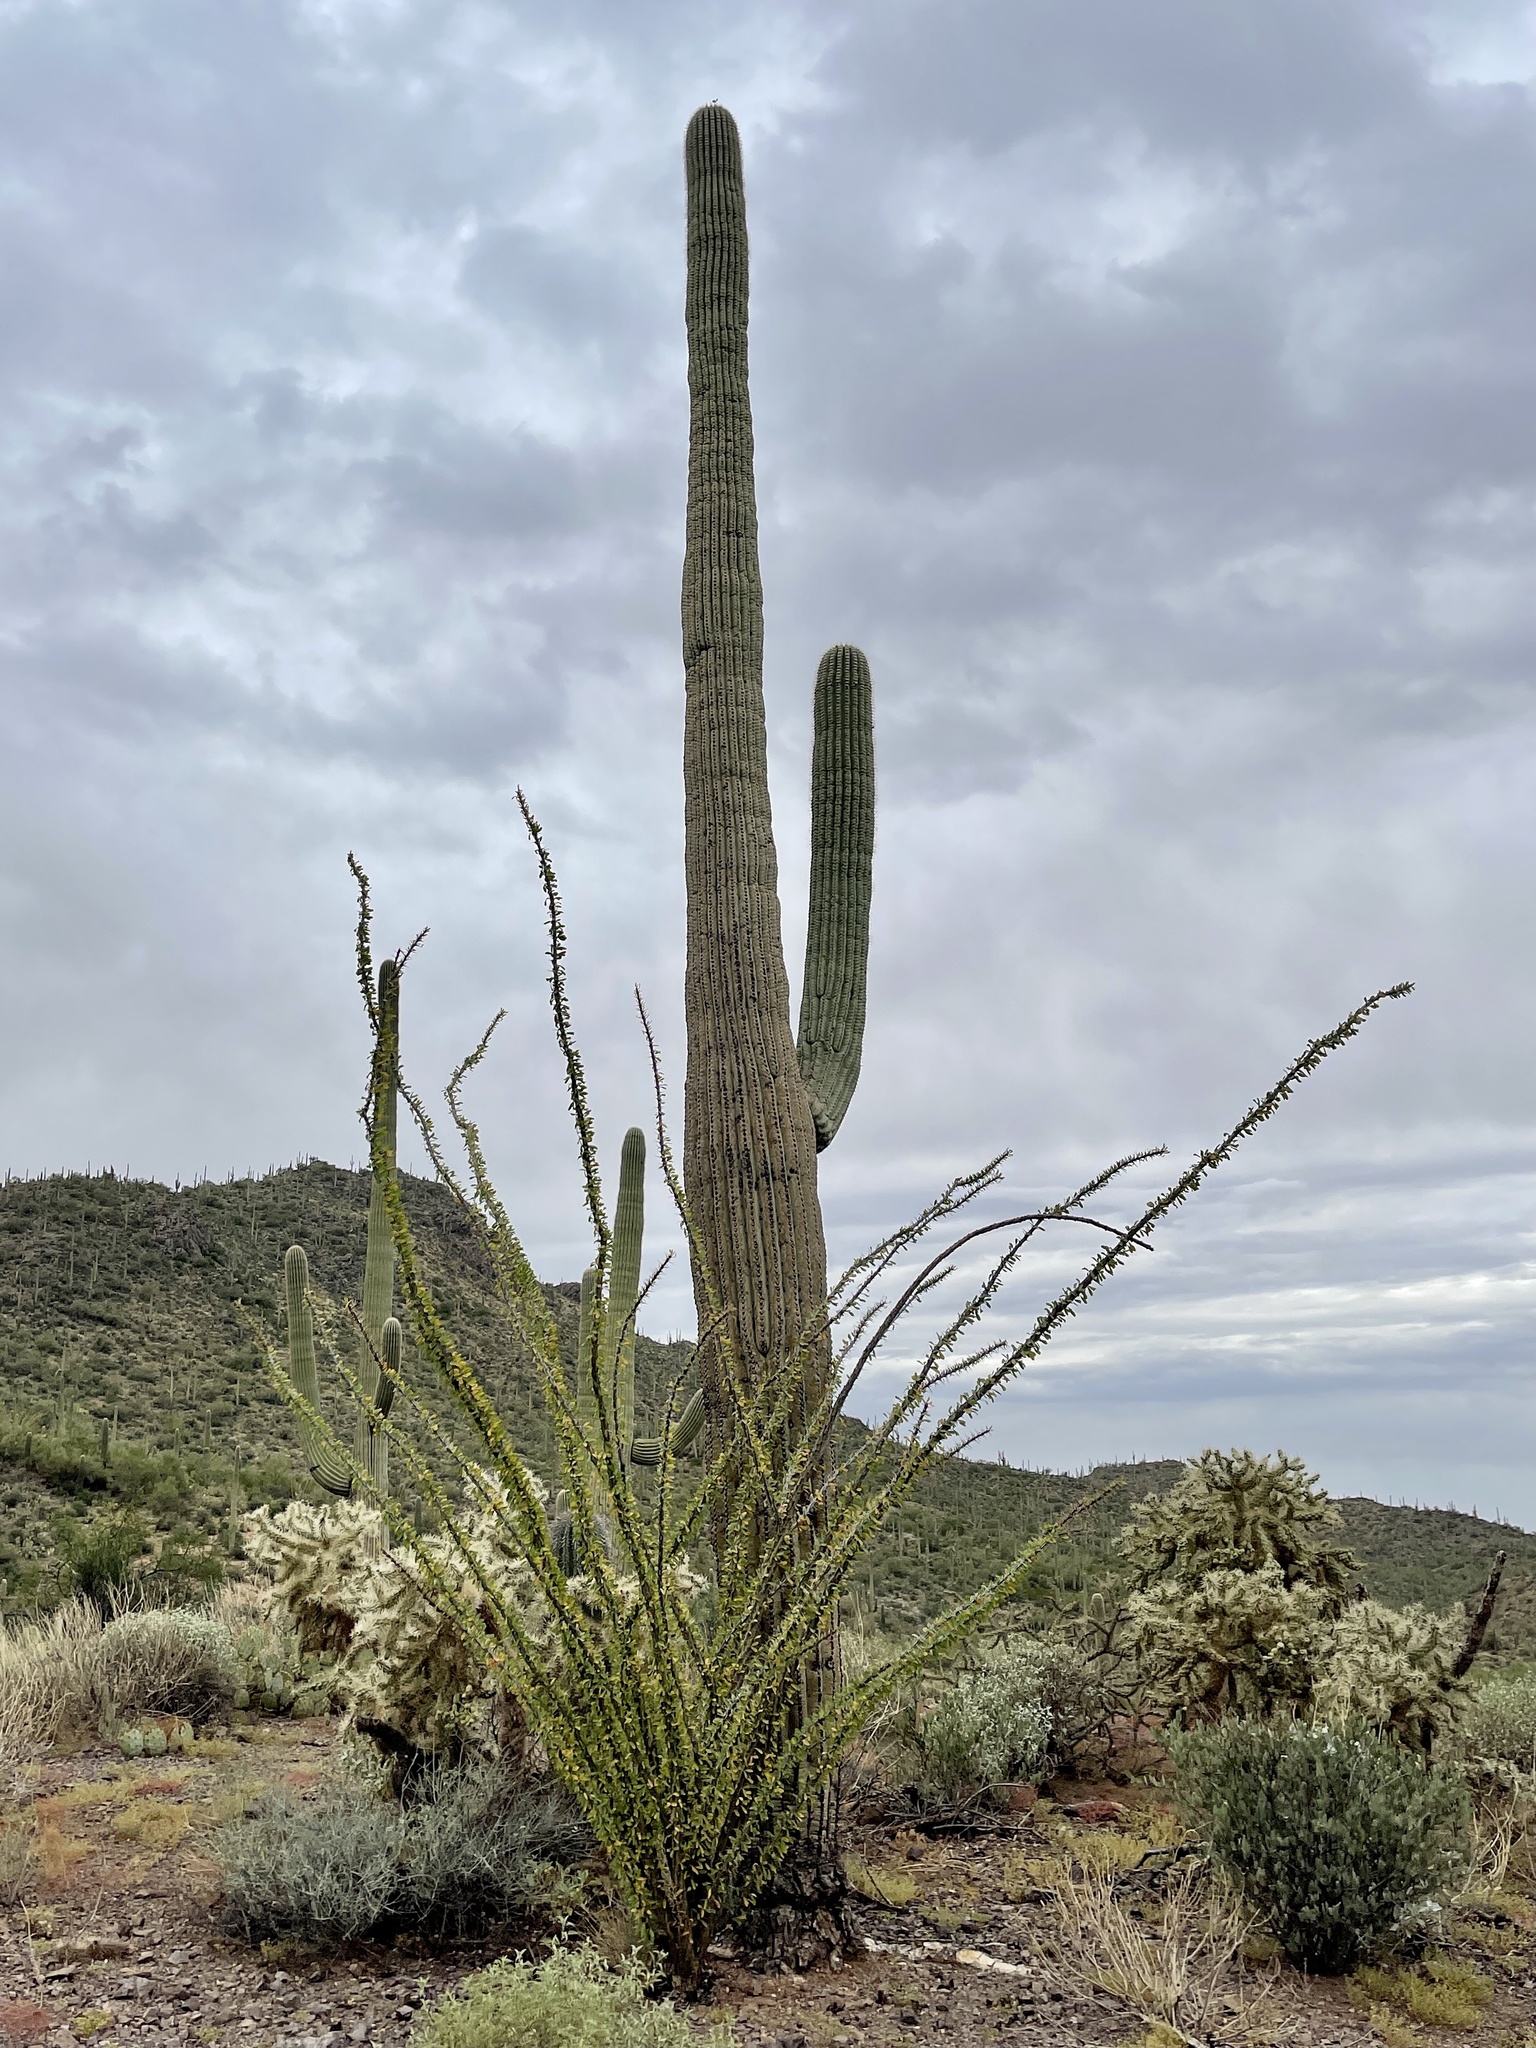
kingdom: Plantae
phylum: Tracheophyta
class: Magnoliopsida
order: Caryophyllales
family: Cactaceae
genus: Carnegiea
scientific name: Carnegiea gigantea
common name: Saguaro
